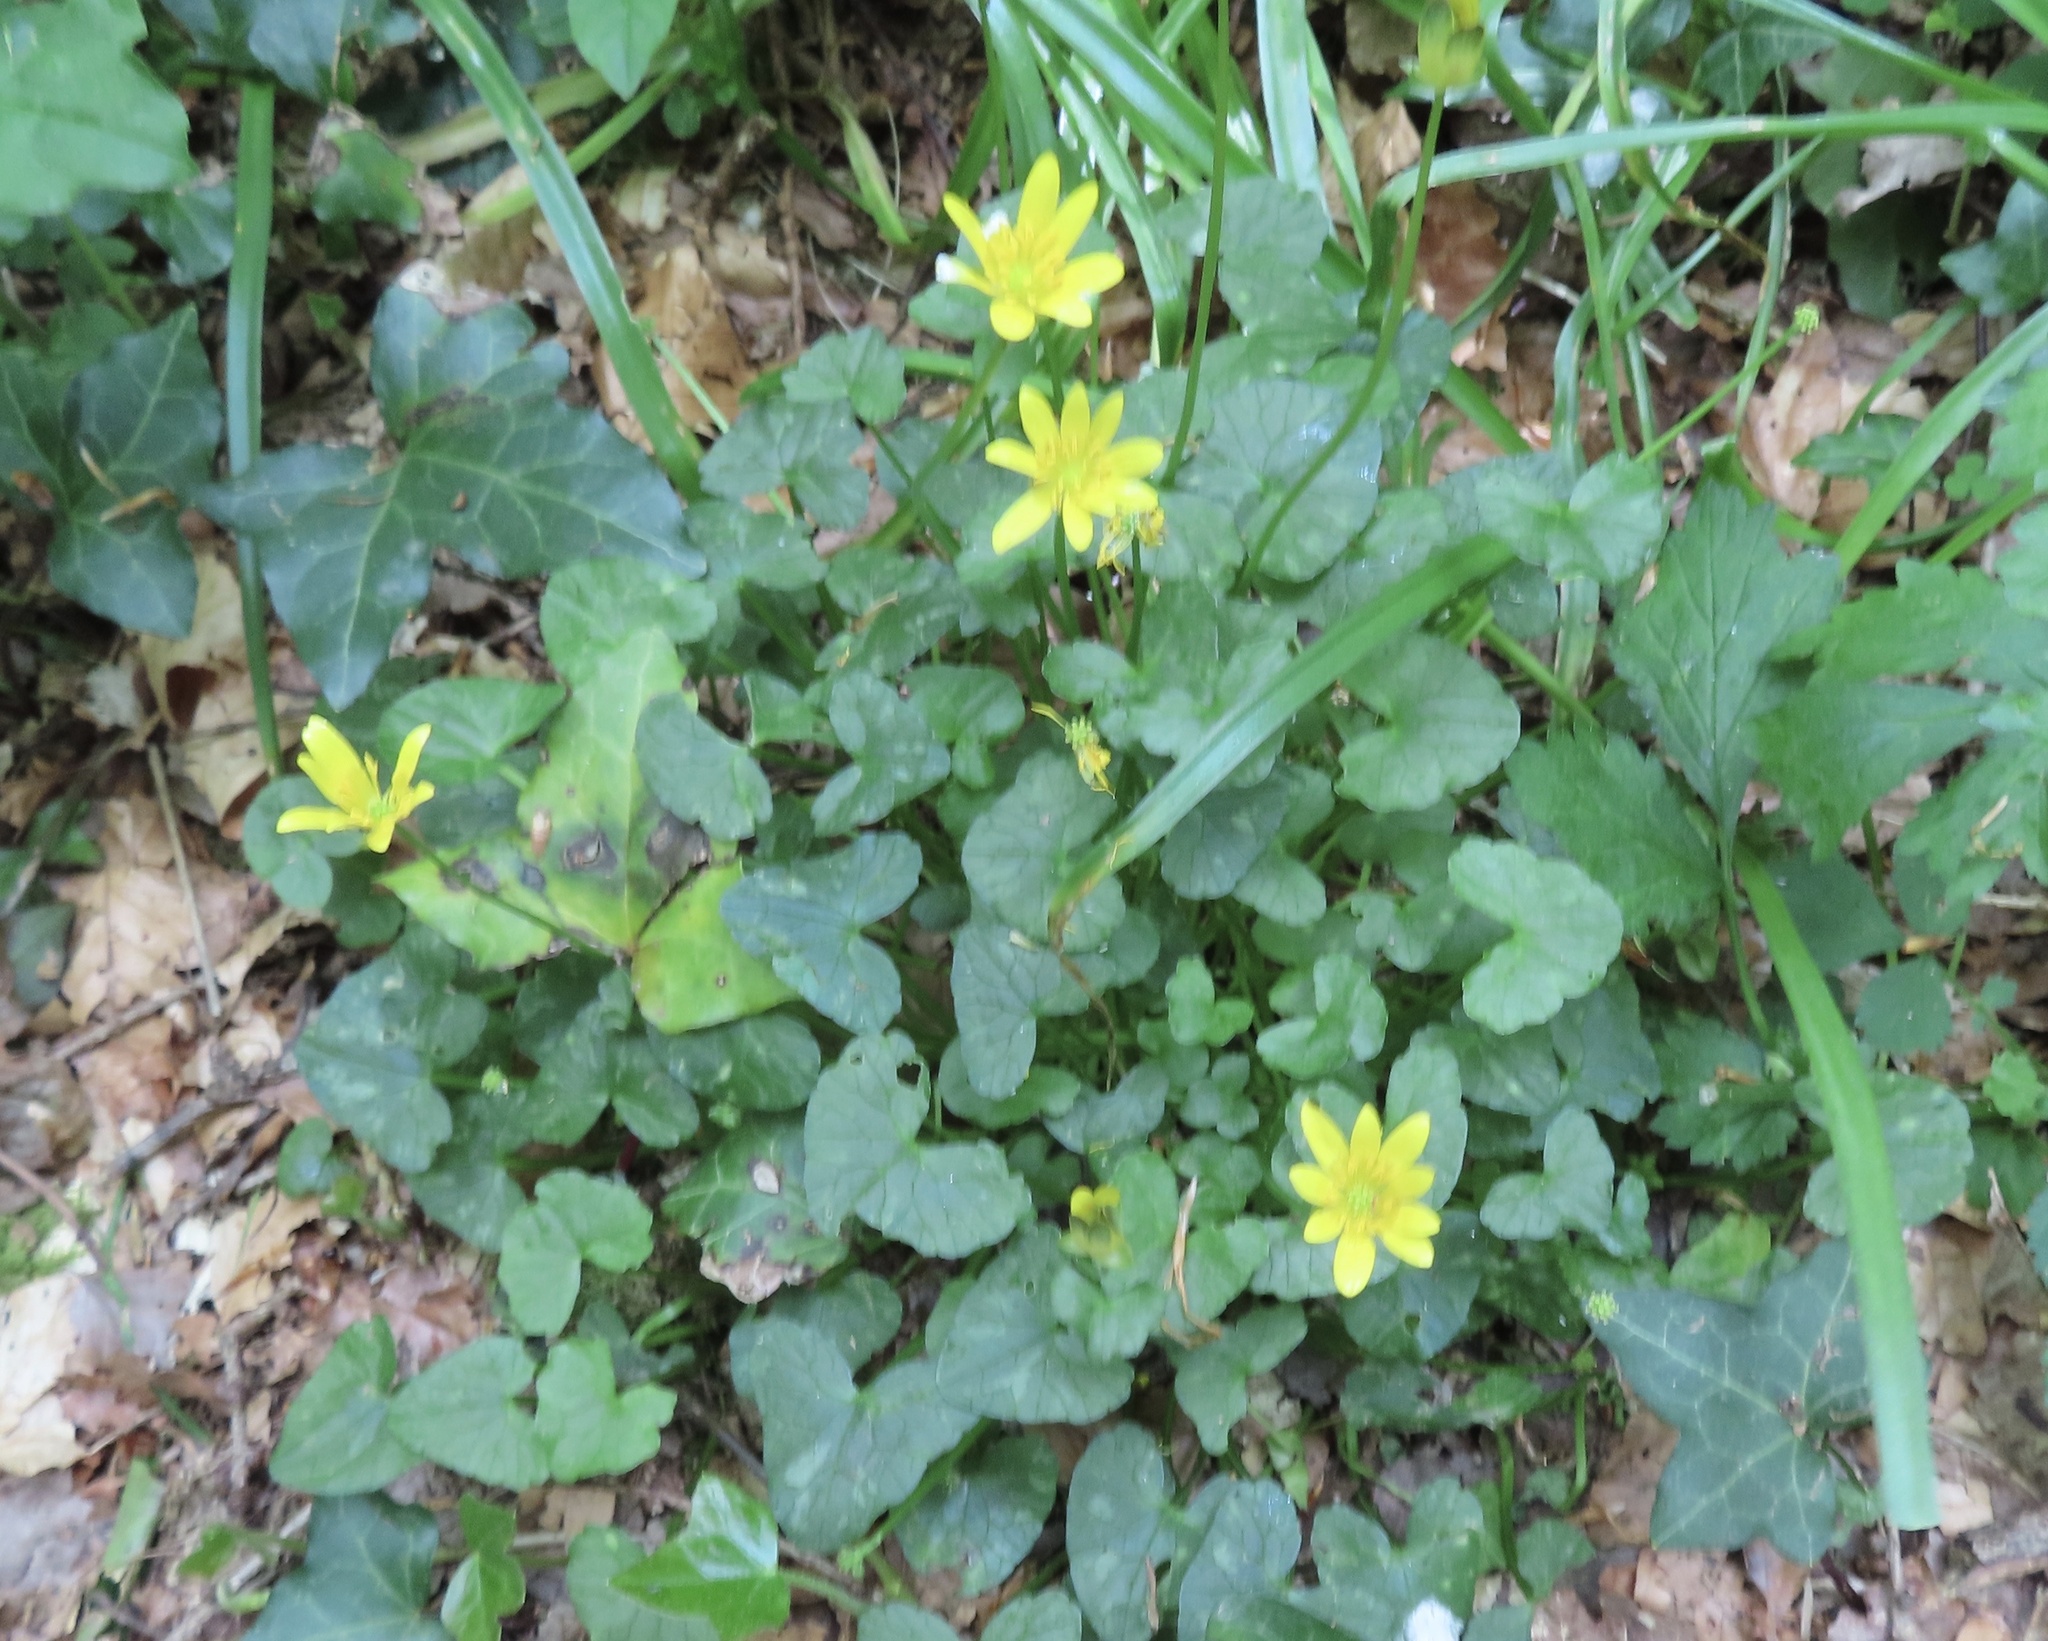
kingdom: Plantae
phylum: Tracheophyta
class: Magnoliopsida
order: Ranunculales
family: Ranunculaceae
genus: Ficaria
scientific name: Ficaria verna
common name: Lesser celandine
